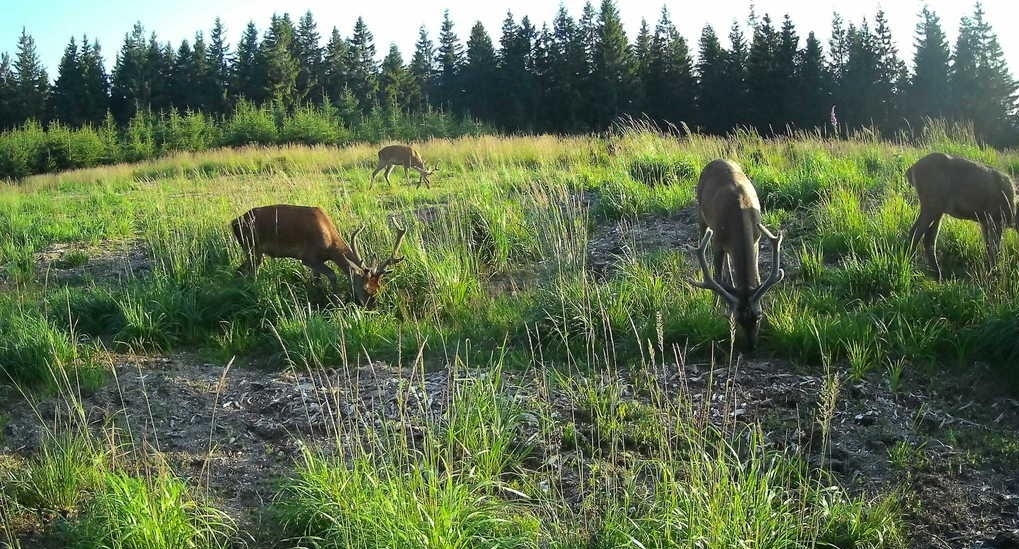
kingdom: Animalia
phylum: Chordata
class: Mammalia
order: Artiodactyla
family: Cervidae
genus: Cervus
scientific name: Cervus elaphus
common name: Red deer
